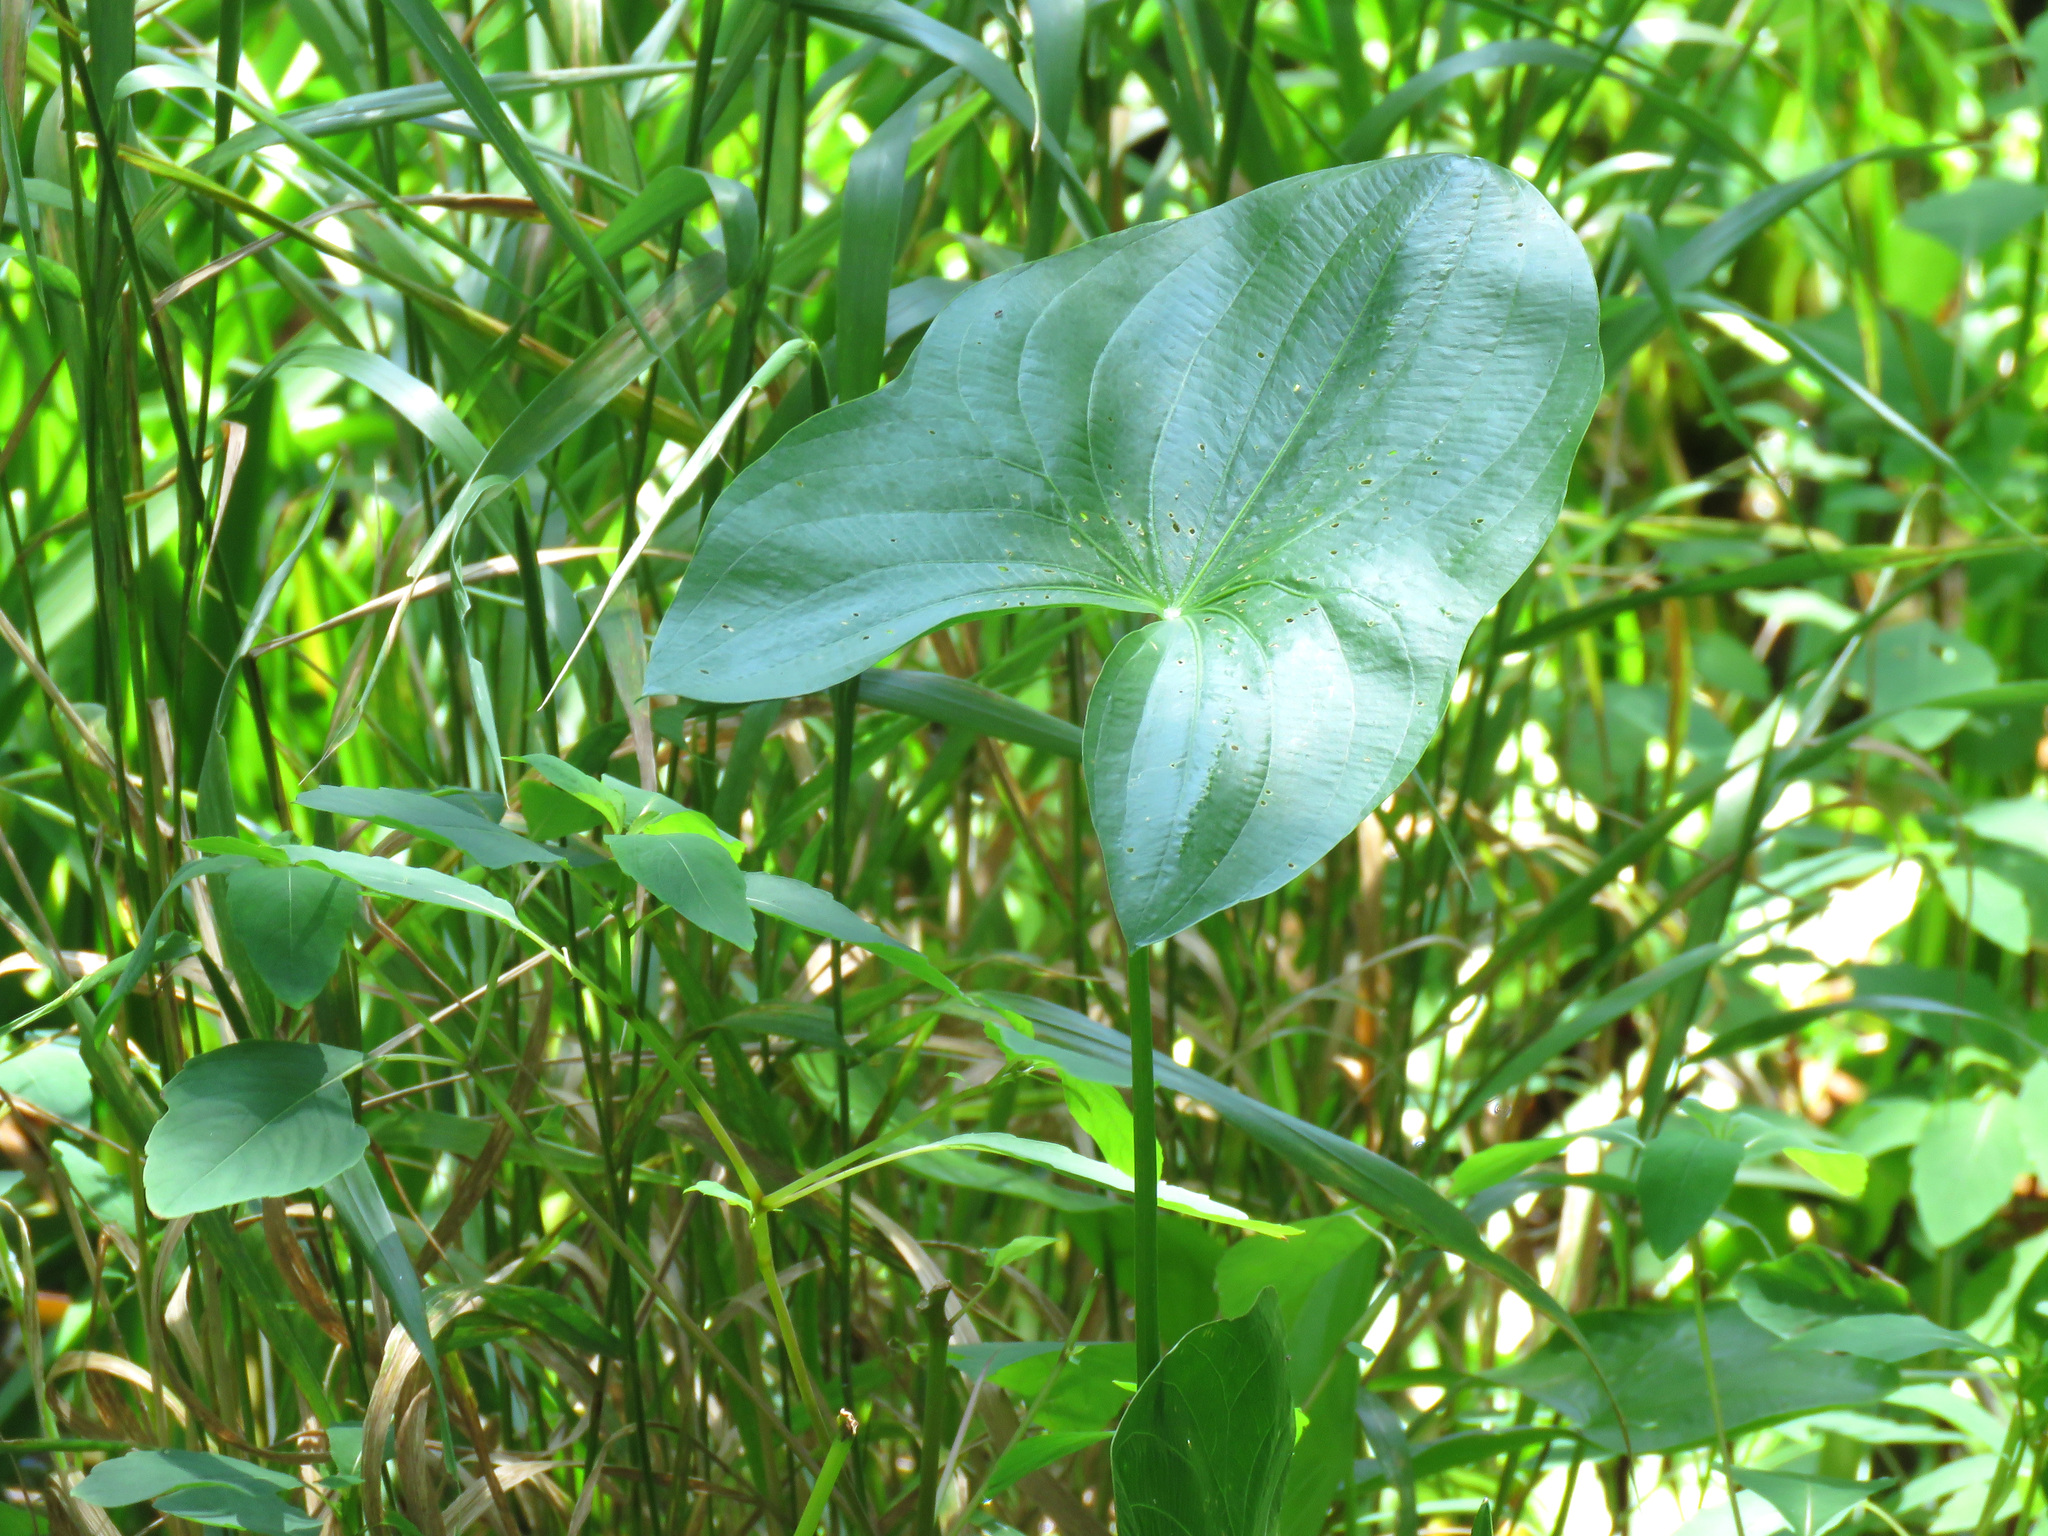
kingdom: Plantae
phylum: Tracheophyta
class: Liliopsida
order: Alismatales
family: Alismataceae
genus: Sagittaria
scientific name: Sagittaria latifolia
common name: Duck-potato
